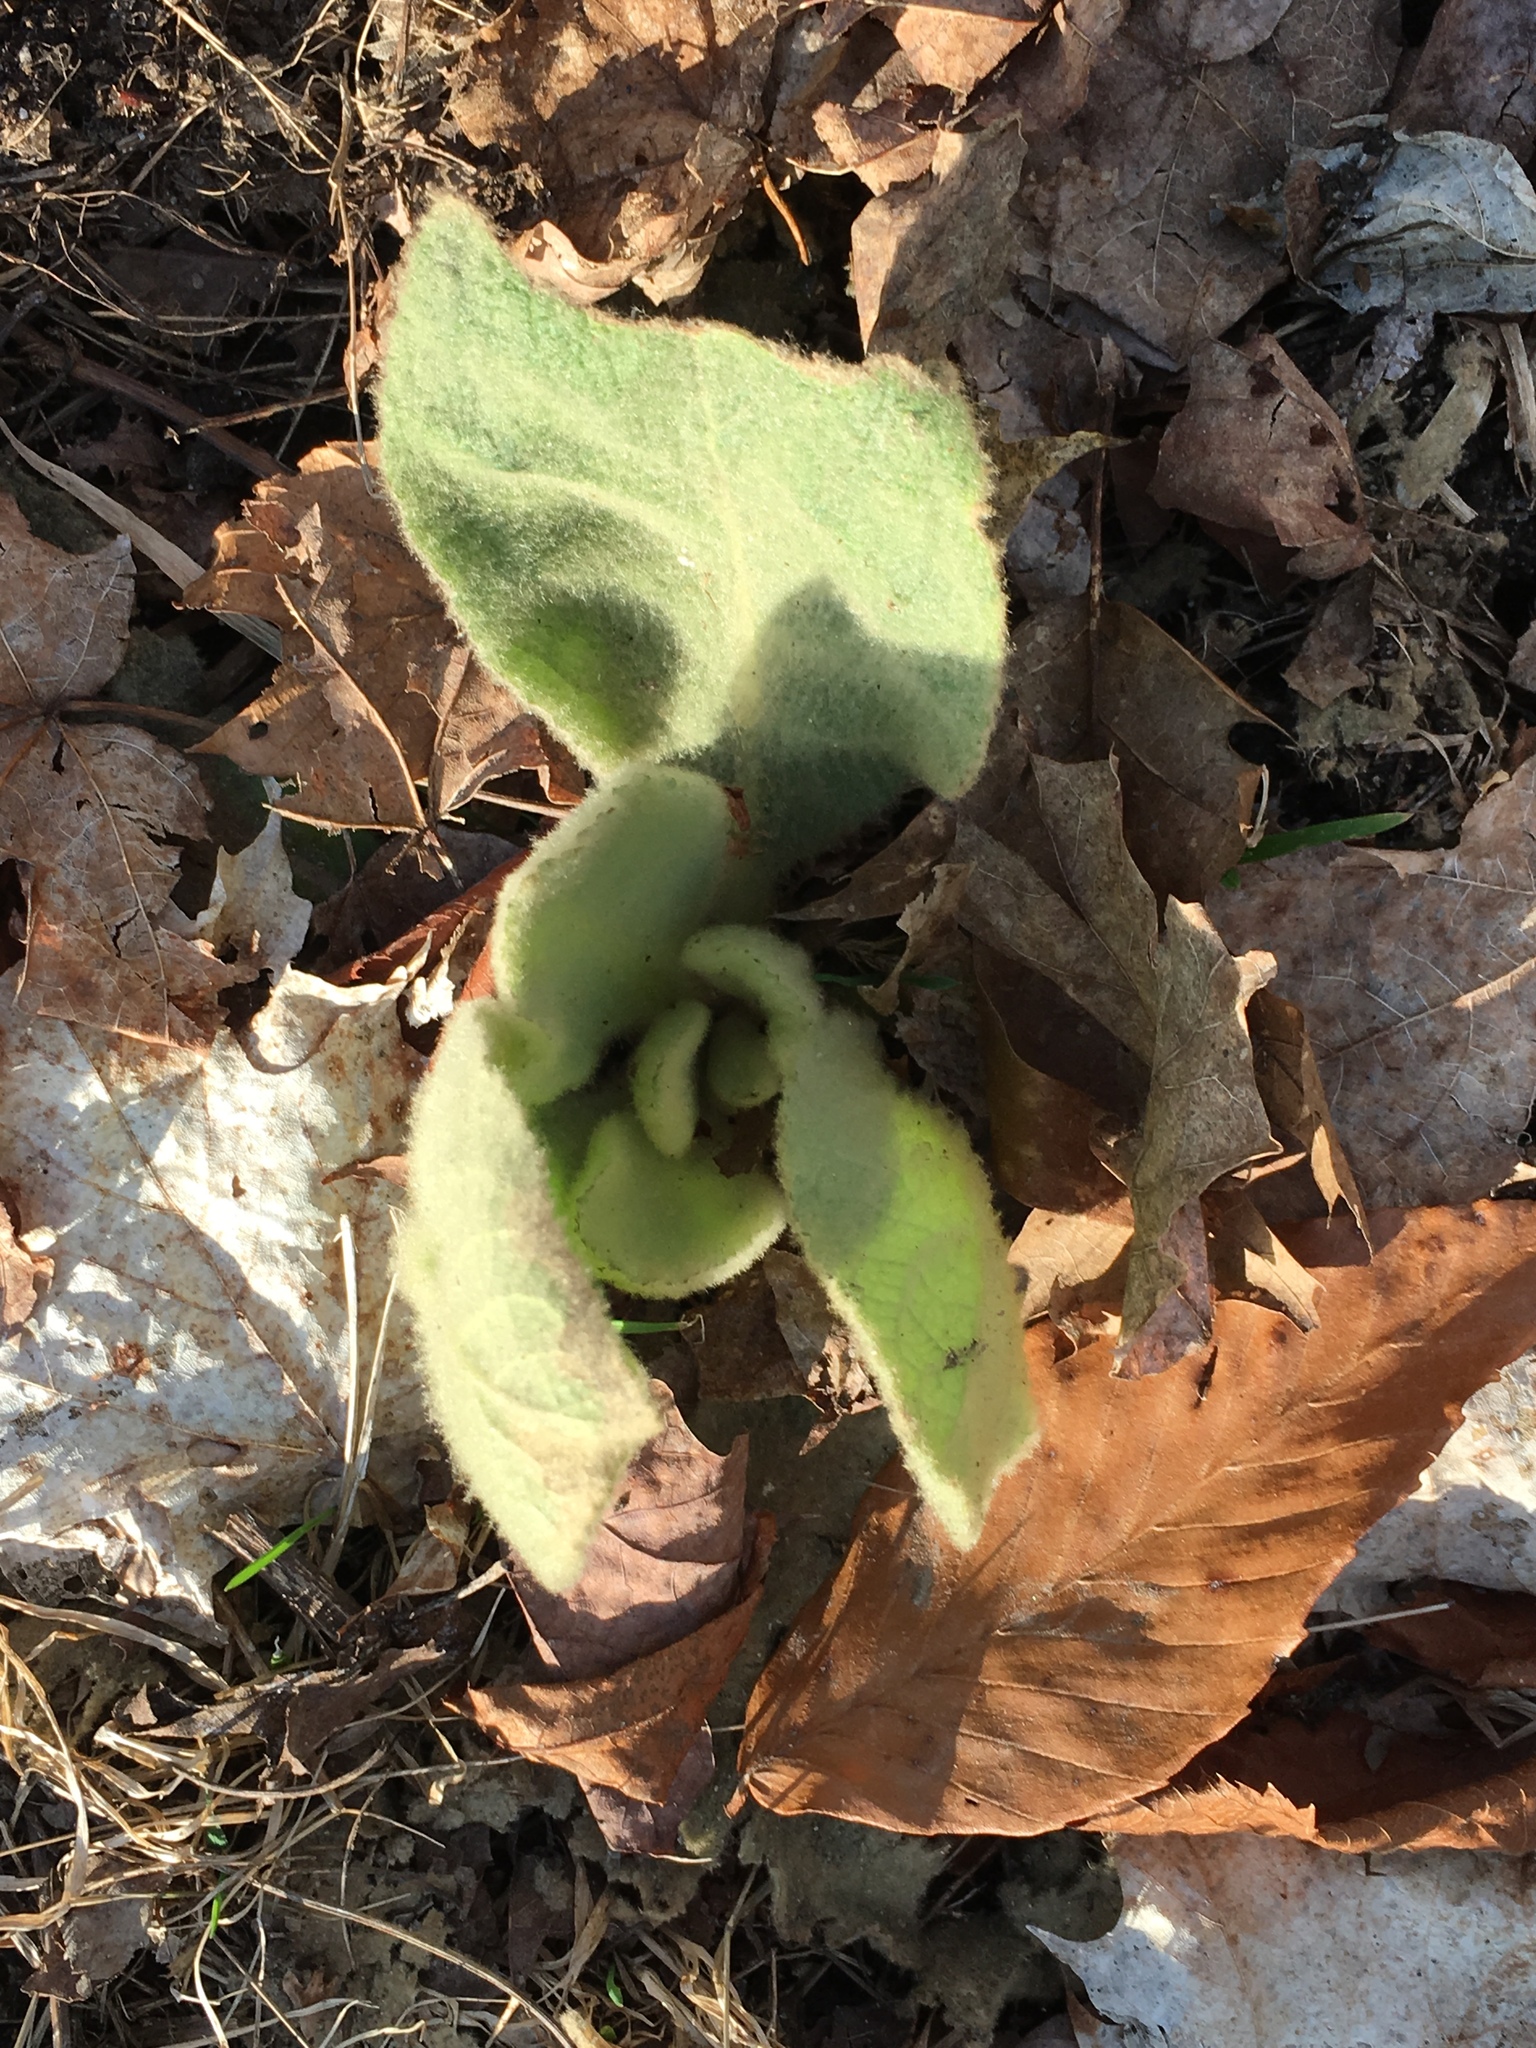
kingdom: Plantae
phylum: Tracheophyta
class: Magnoliopsida
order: Lamiales
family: Scrophulariaceae
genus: Verbascum
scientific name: Verbascum thapsus
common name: Common mullein
